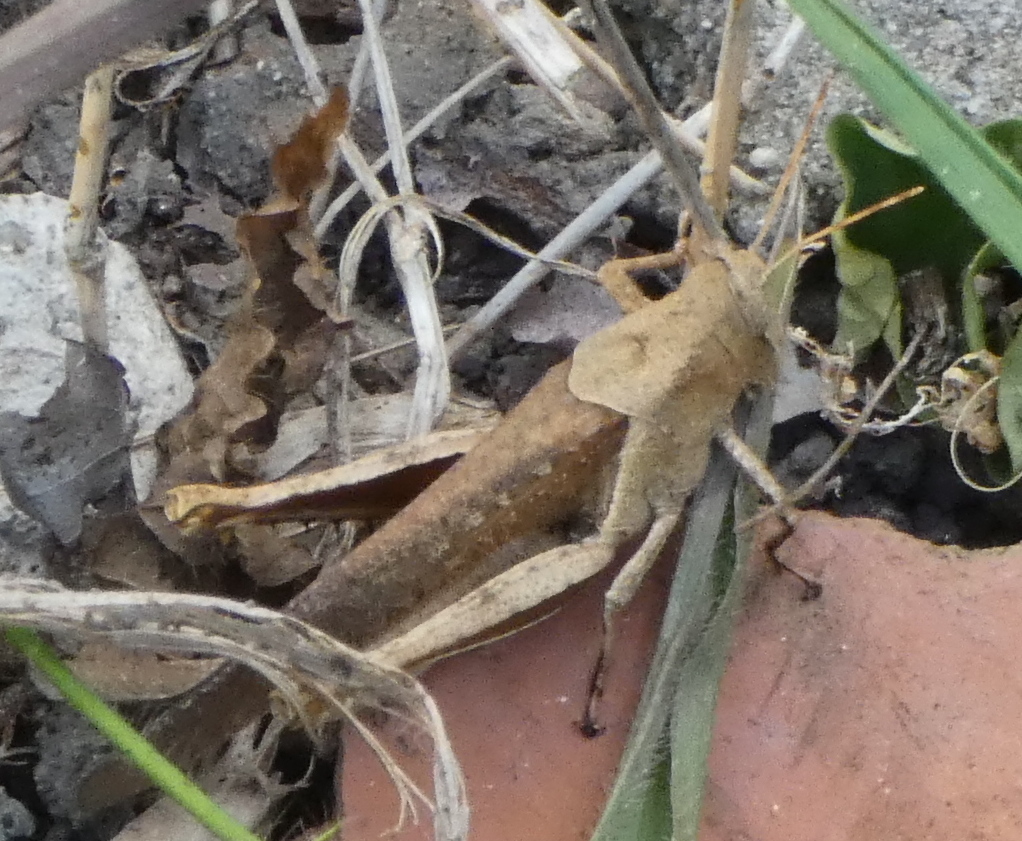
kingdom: Animalia
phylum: Arthropoda
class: Insecta
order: Orthoptera
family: Acrididae
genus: Abracris
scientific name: Abracris flavolineata
